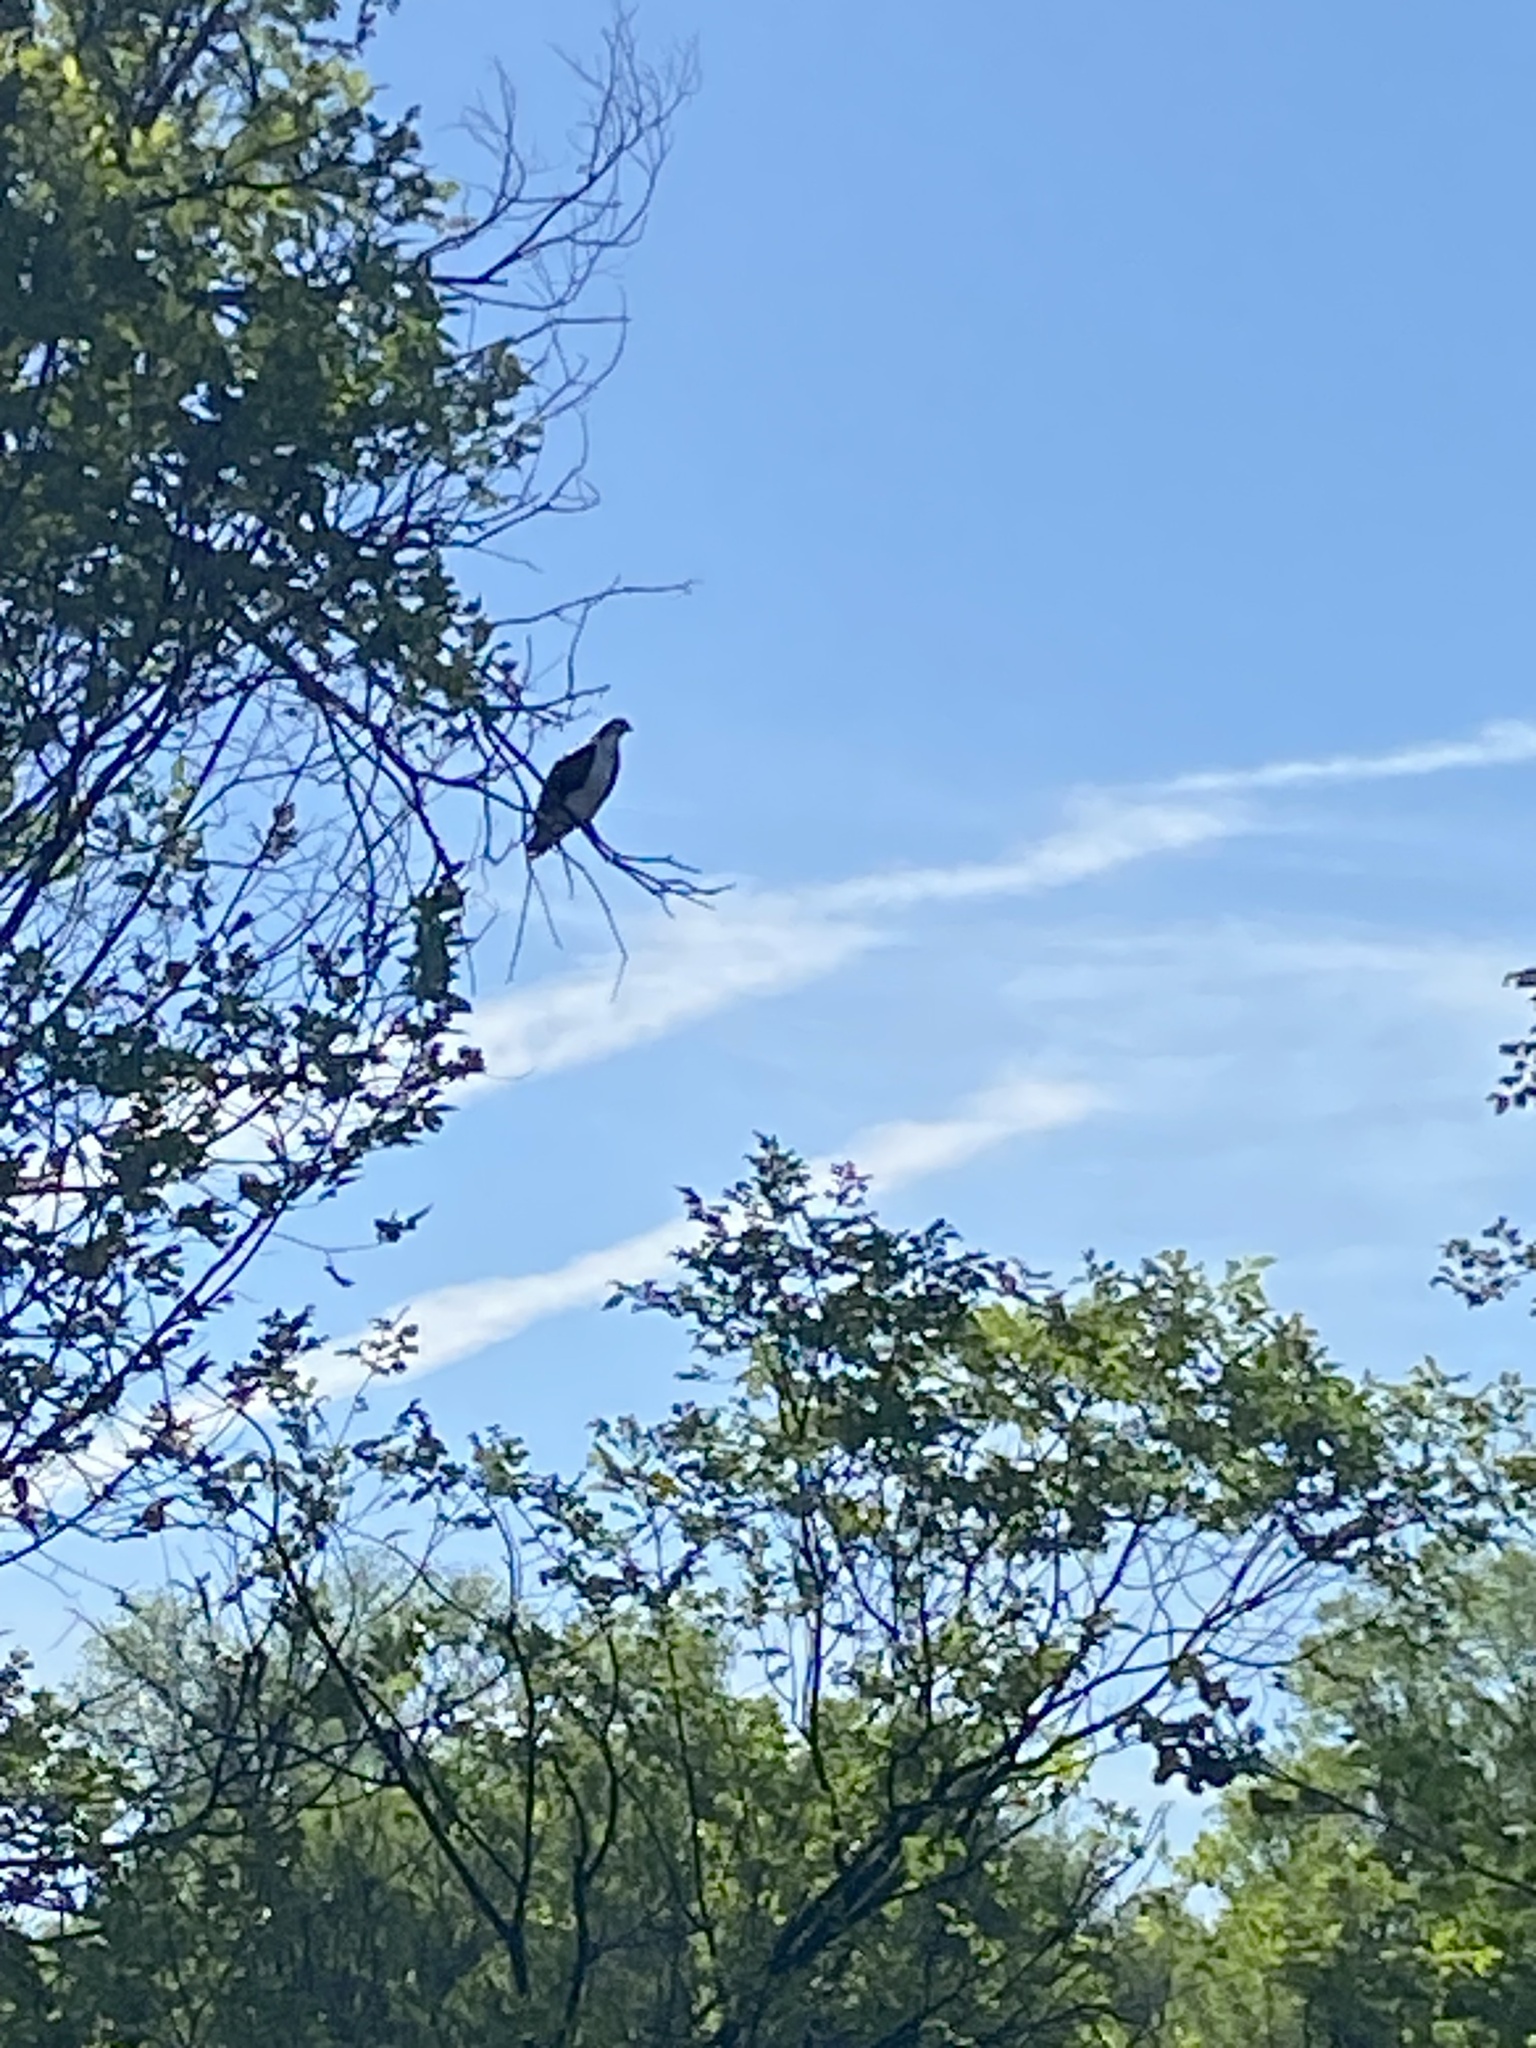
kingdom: Animalia
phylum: Chordata
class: Aves
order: Accipitriformes
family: Pandionidae
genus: Pandion
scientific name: Pandion haliaetus
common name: Osprey
